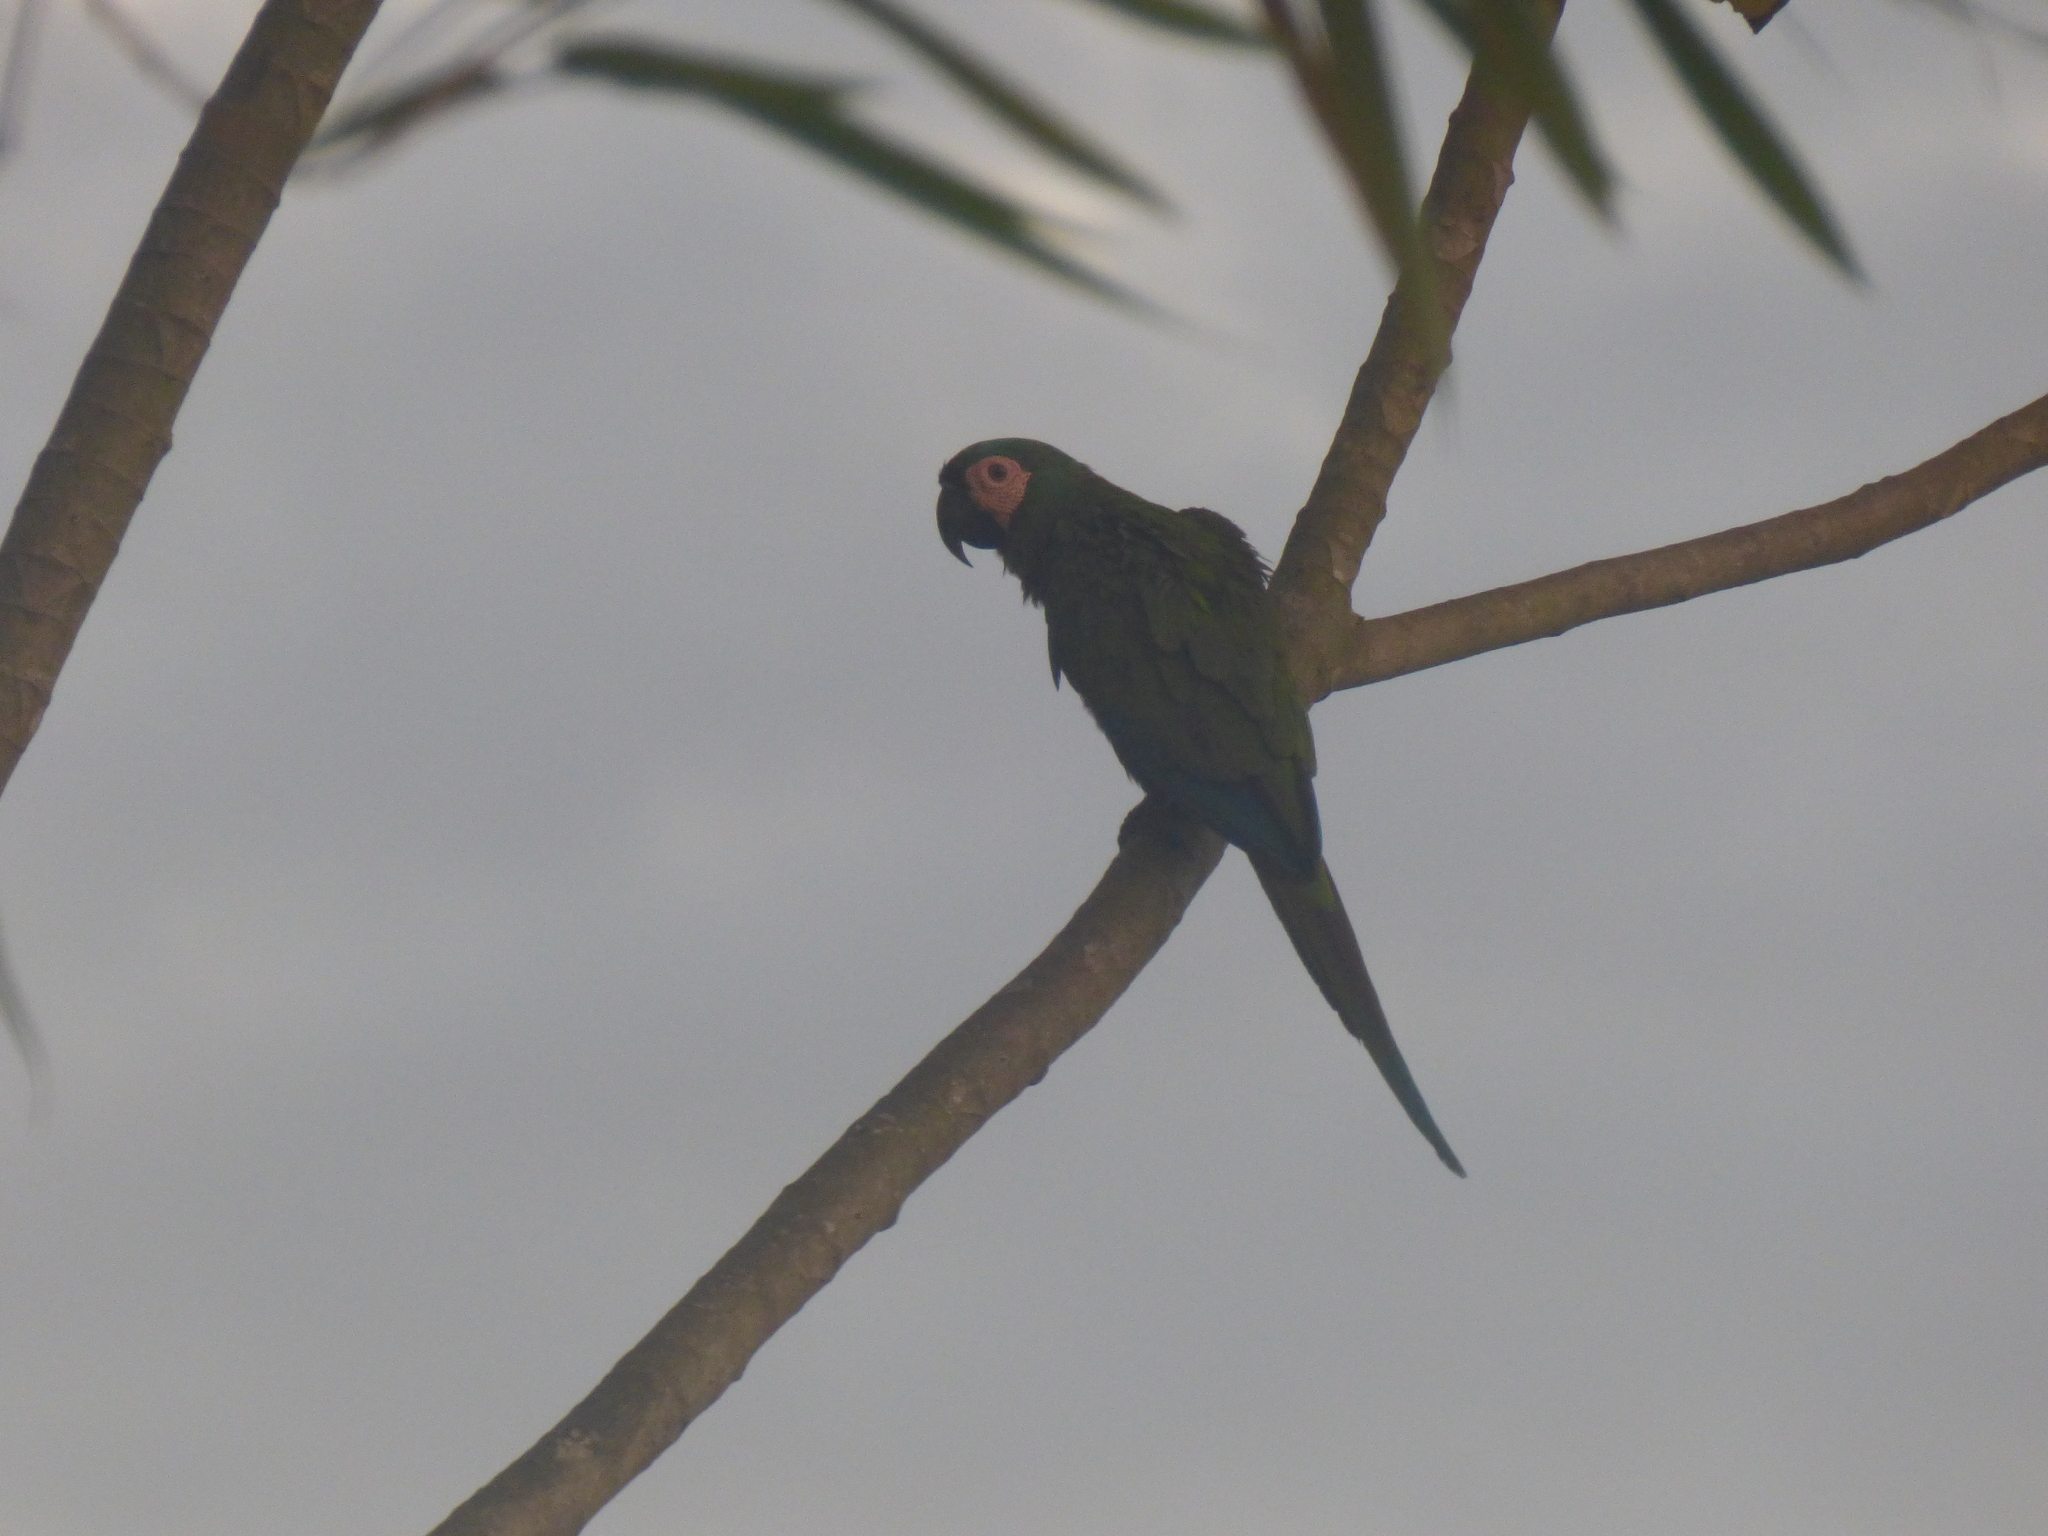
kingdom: Animalia
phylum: Chordata
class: Aves
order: Psittaciformes
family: Psittacidae
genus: Ara
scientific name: Ara severus
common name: Chestnut-fronted macaw
